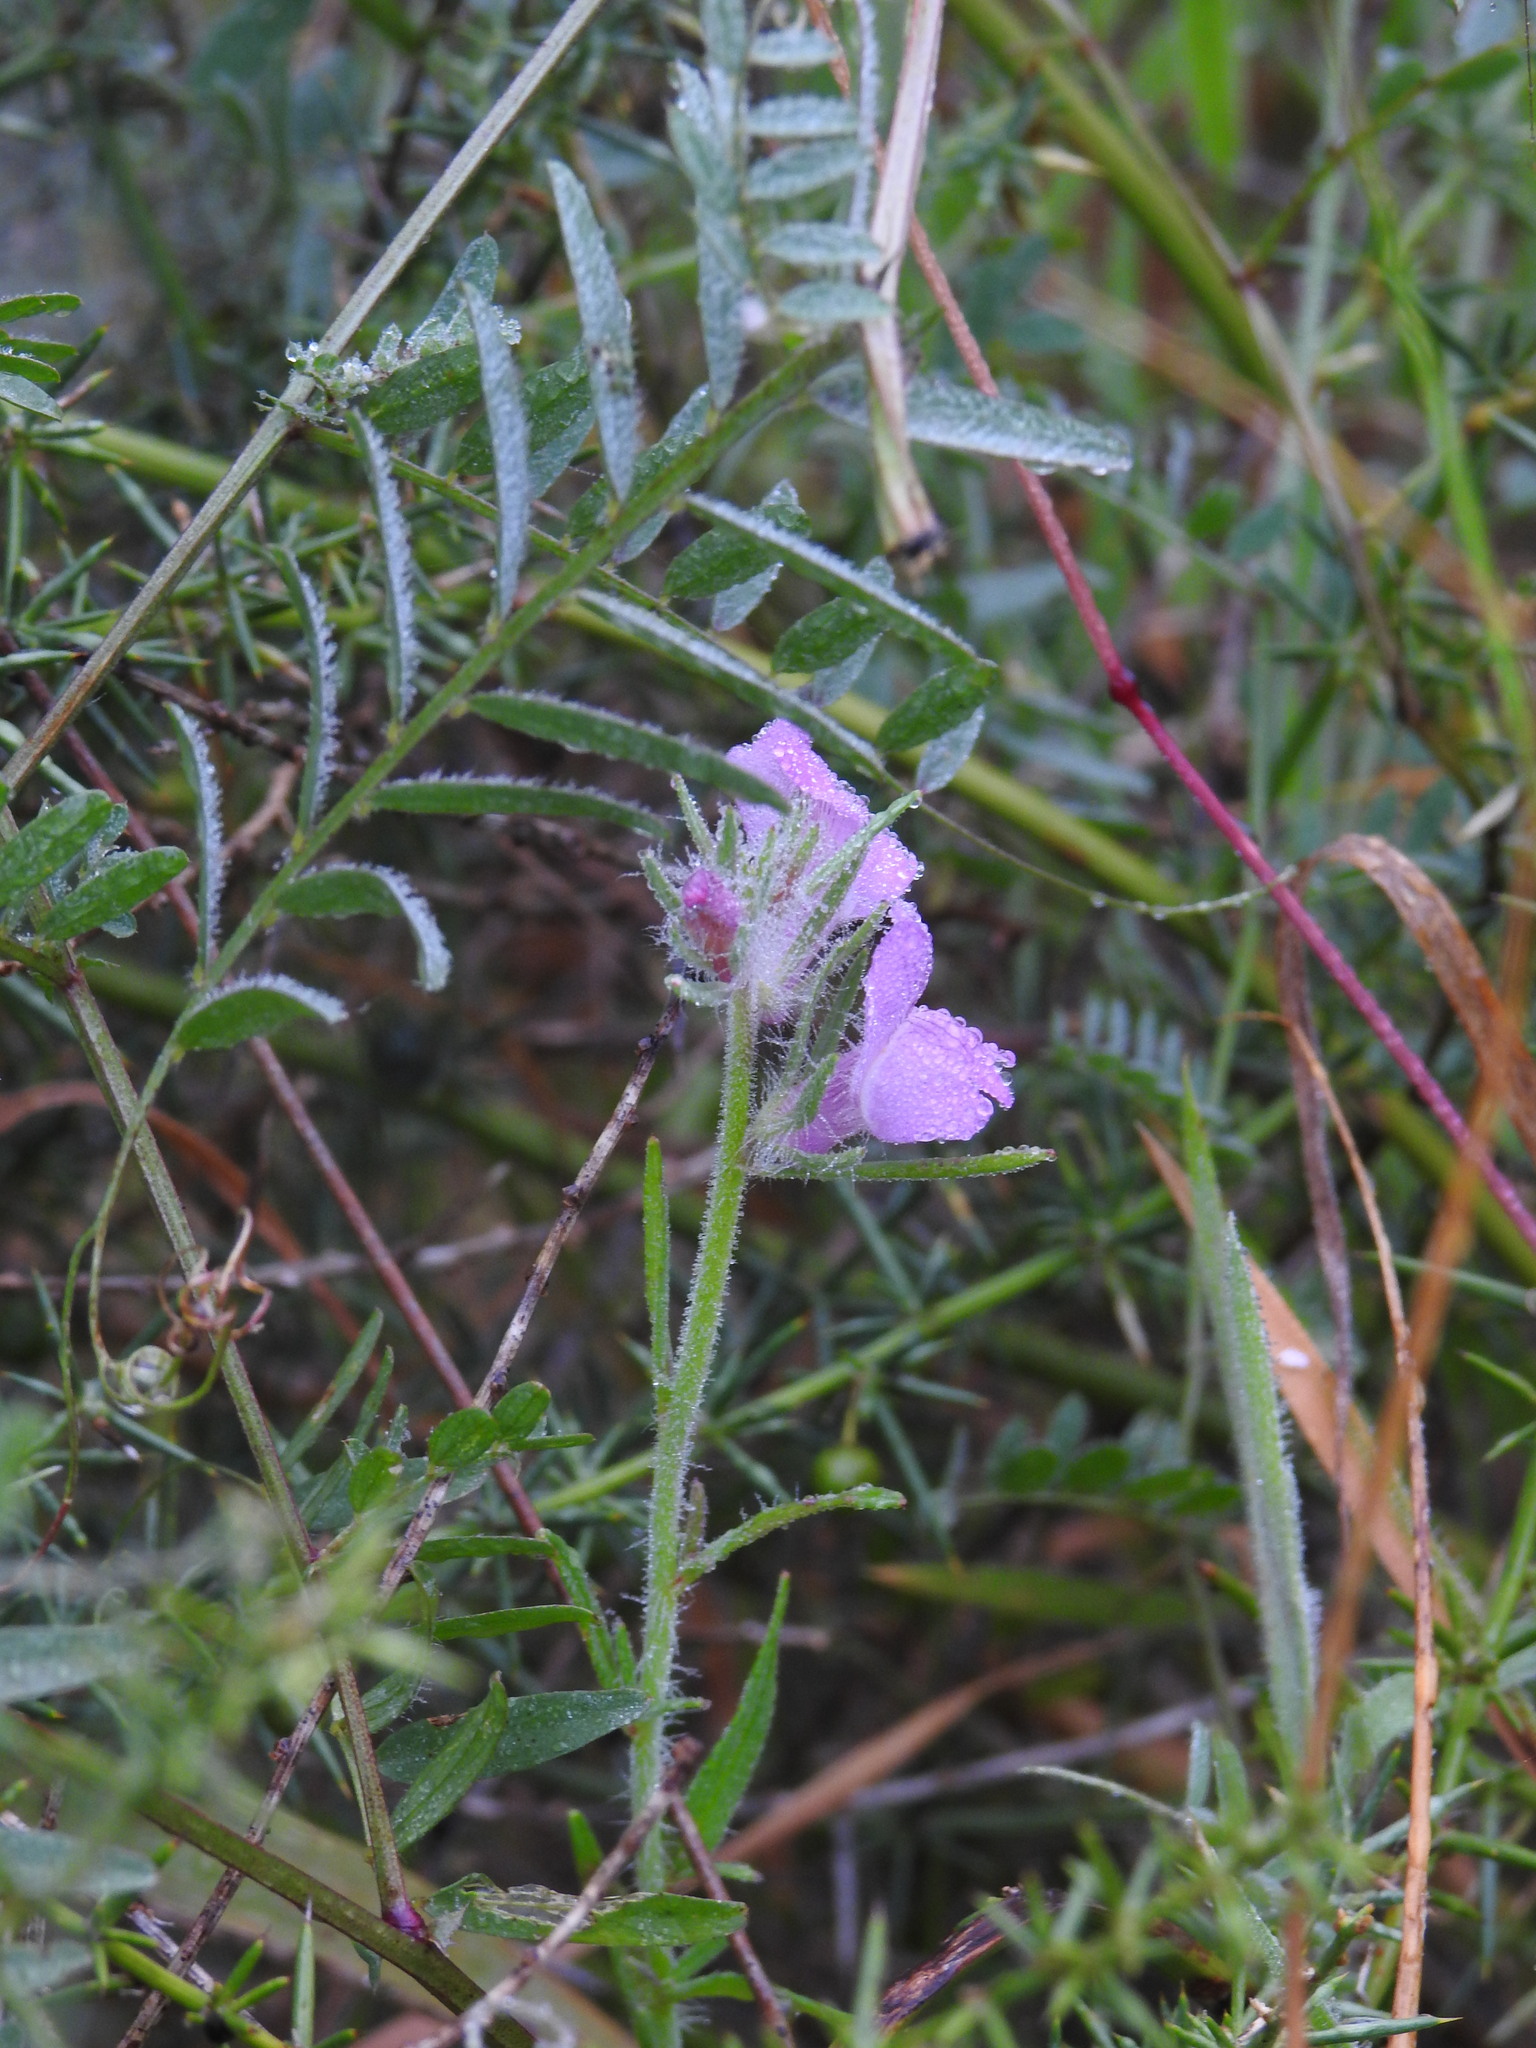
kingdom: Plantae
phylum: Tracheophyta
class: Magnoliopsida
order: Lamiales
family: Plantaginaceae
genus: Misopates
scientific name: Misopates orontium
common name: Weasel's-snout
